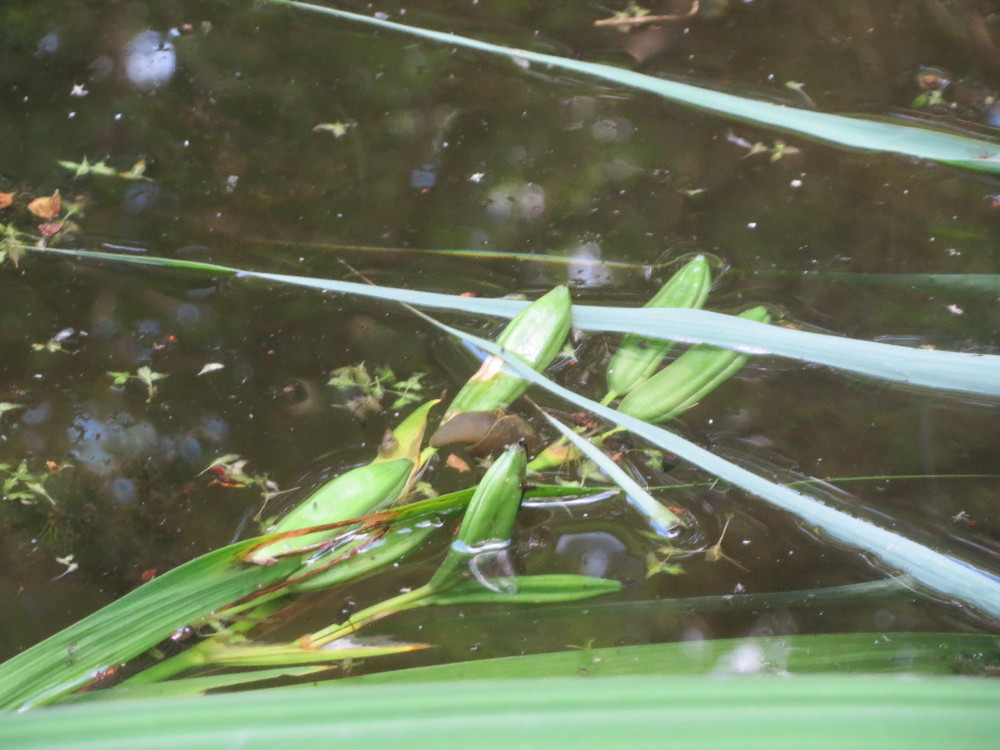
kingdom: Plantae
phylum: Tracheophyta
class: Liliopsida
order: Asparagales
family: Iridaceae
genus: Iris
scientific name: Iris pseudacorus
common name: Yellow flag
